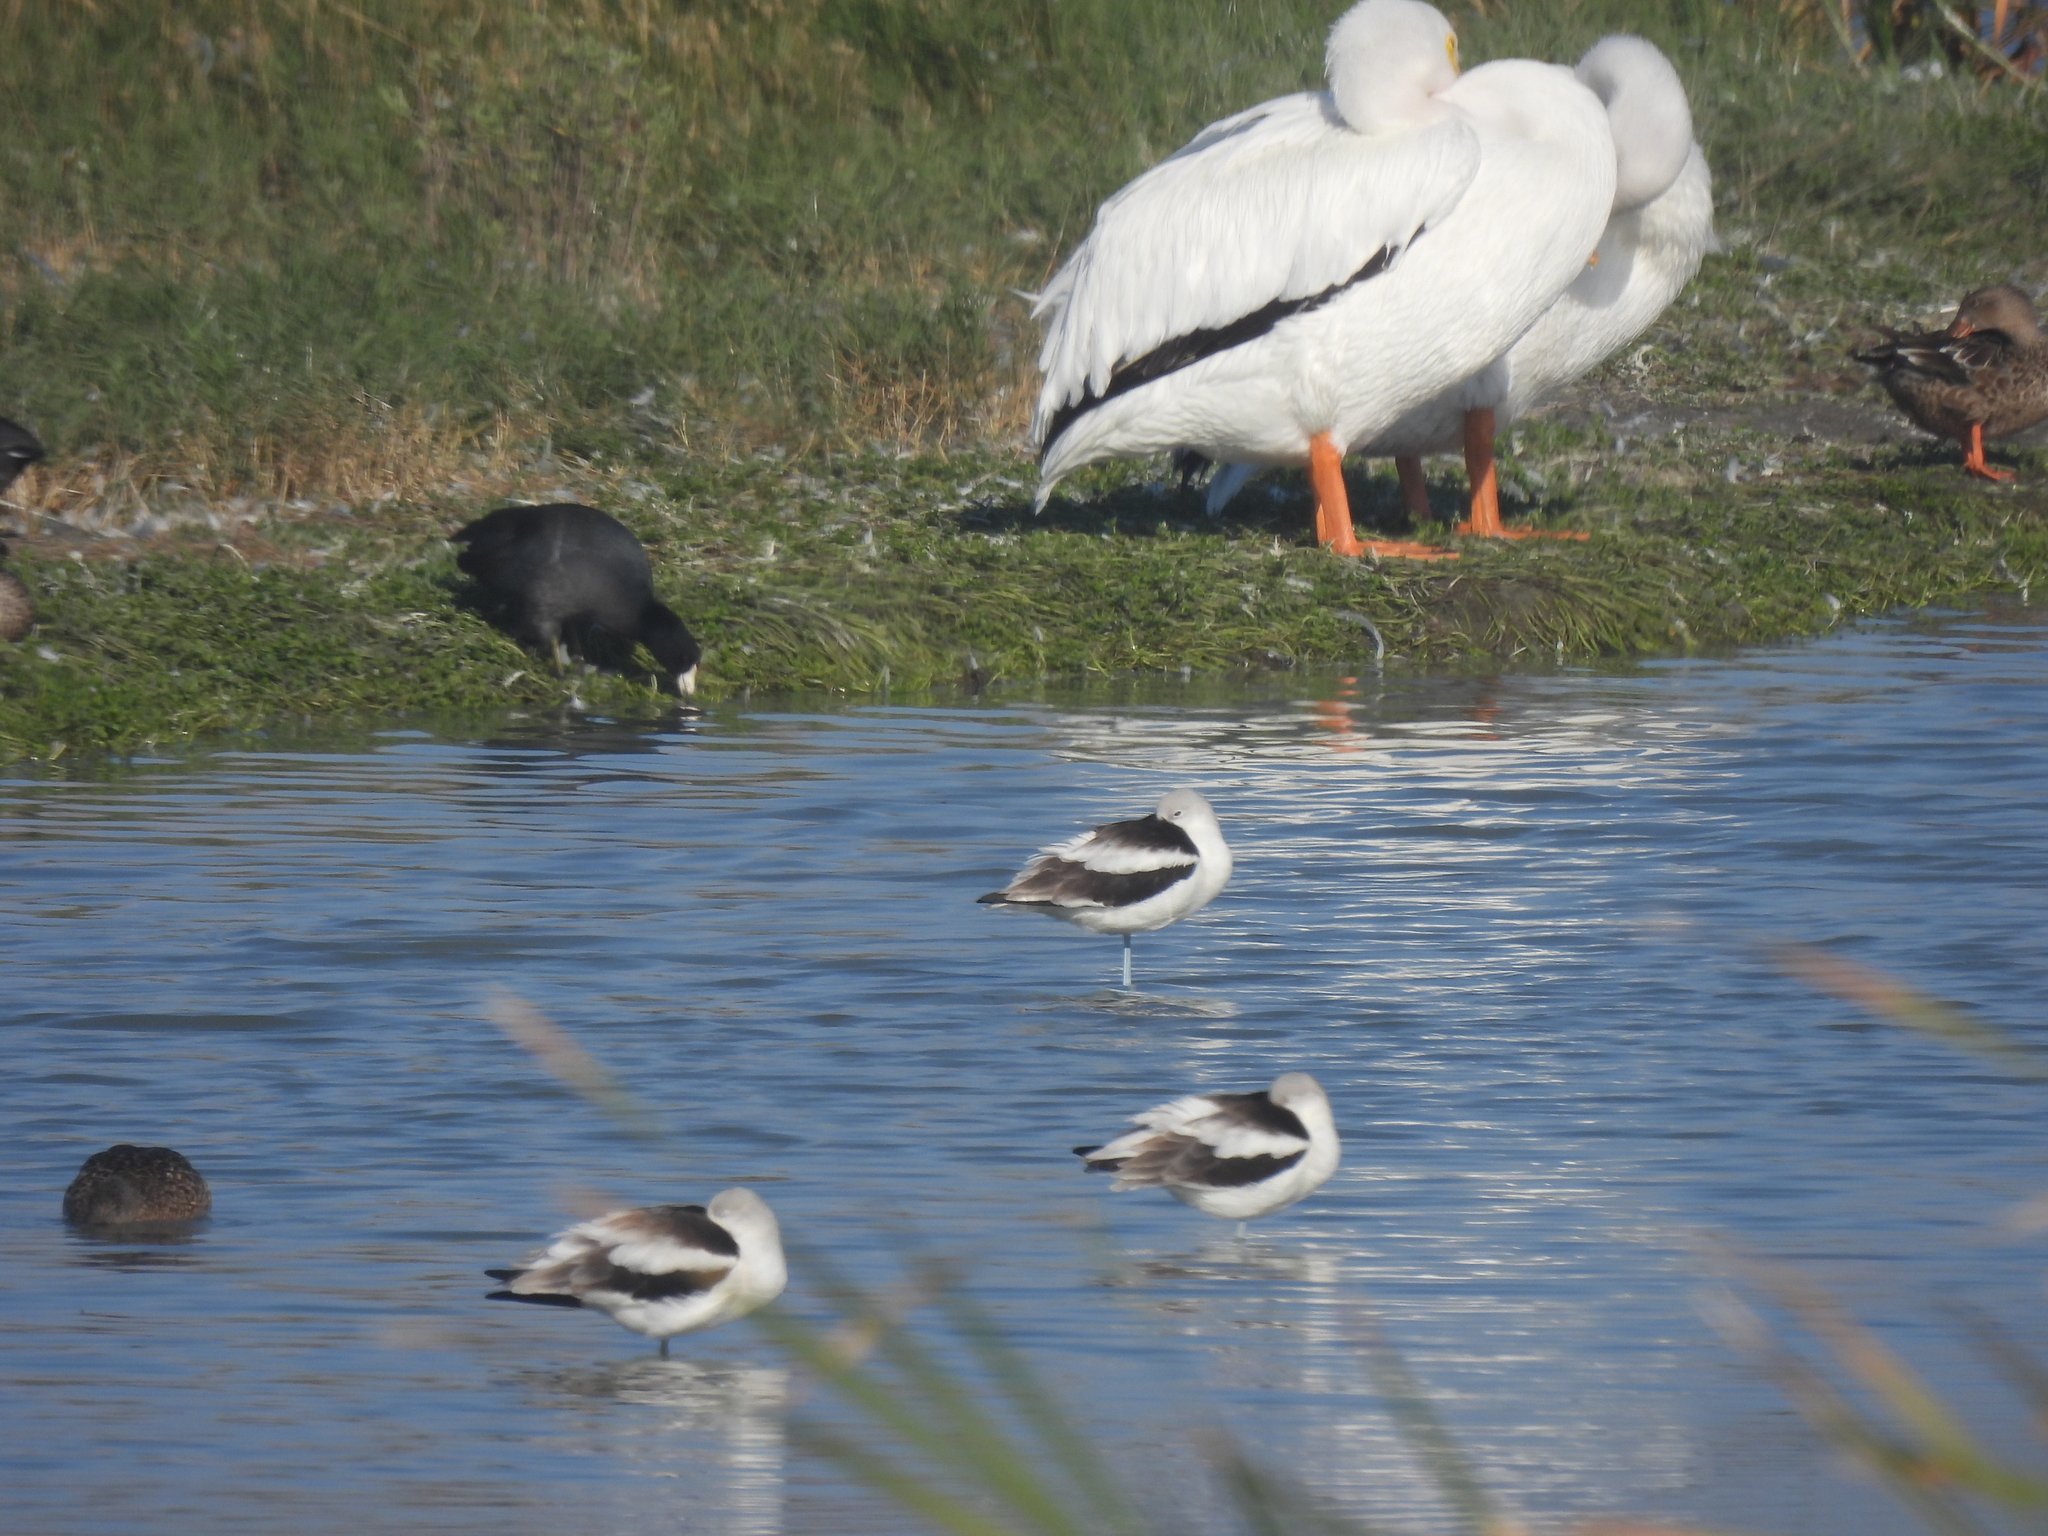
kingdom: Animalia
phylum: Chordata
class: Aves
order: Charadriiformes
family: Recurvirostridae
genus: Recurvirostra
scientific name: Recurvirostra americana
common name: American avocet
